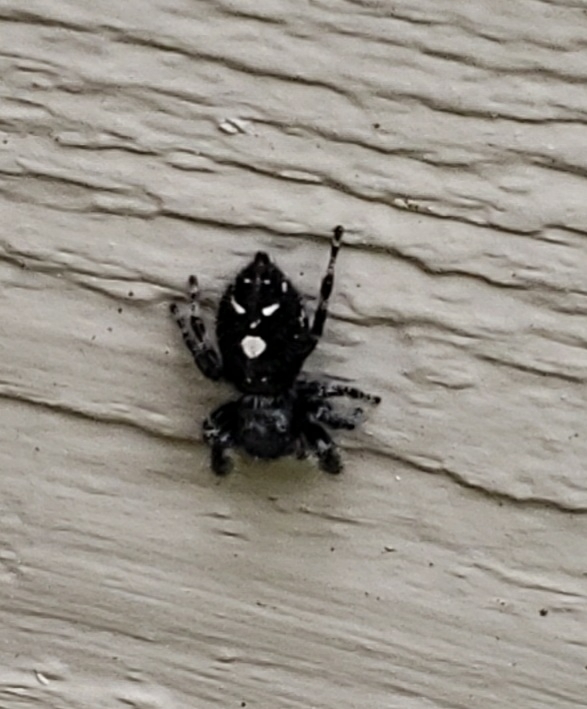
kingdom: Animalia
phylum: Arthropoda
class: Arachnida
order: Araneae
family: Salticidae
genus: Phidippus
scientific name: Phidippus audax
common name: Bold jumper
